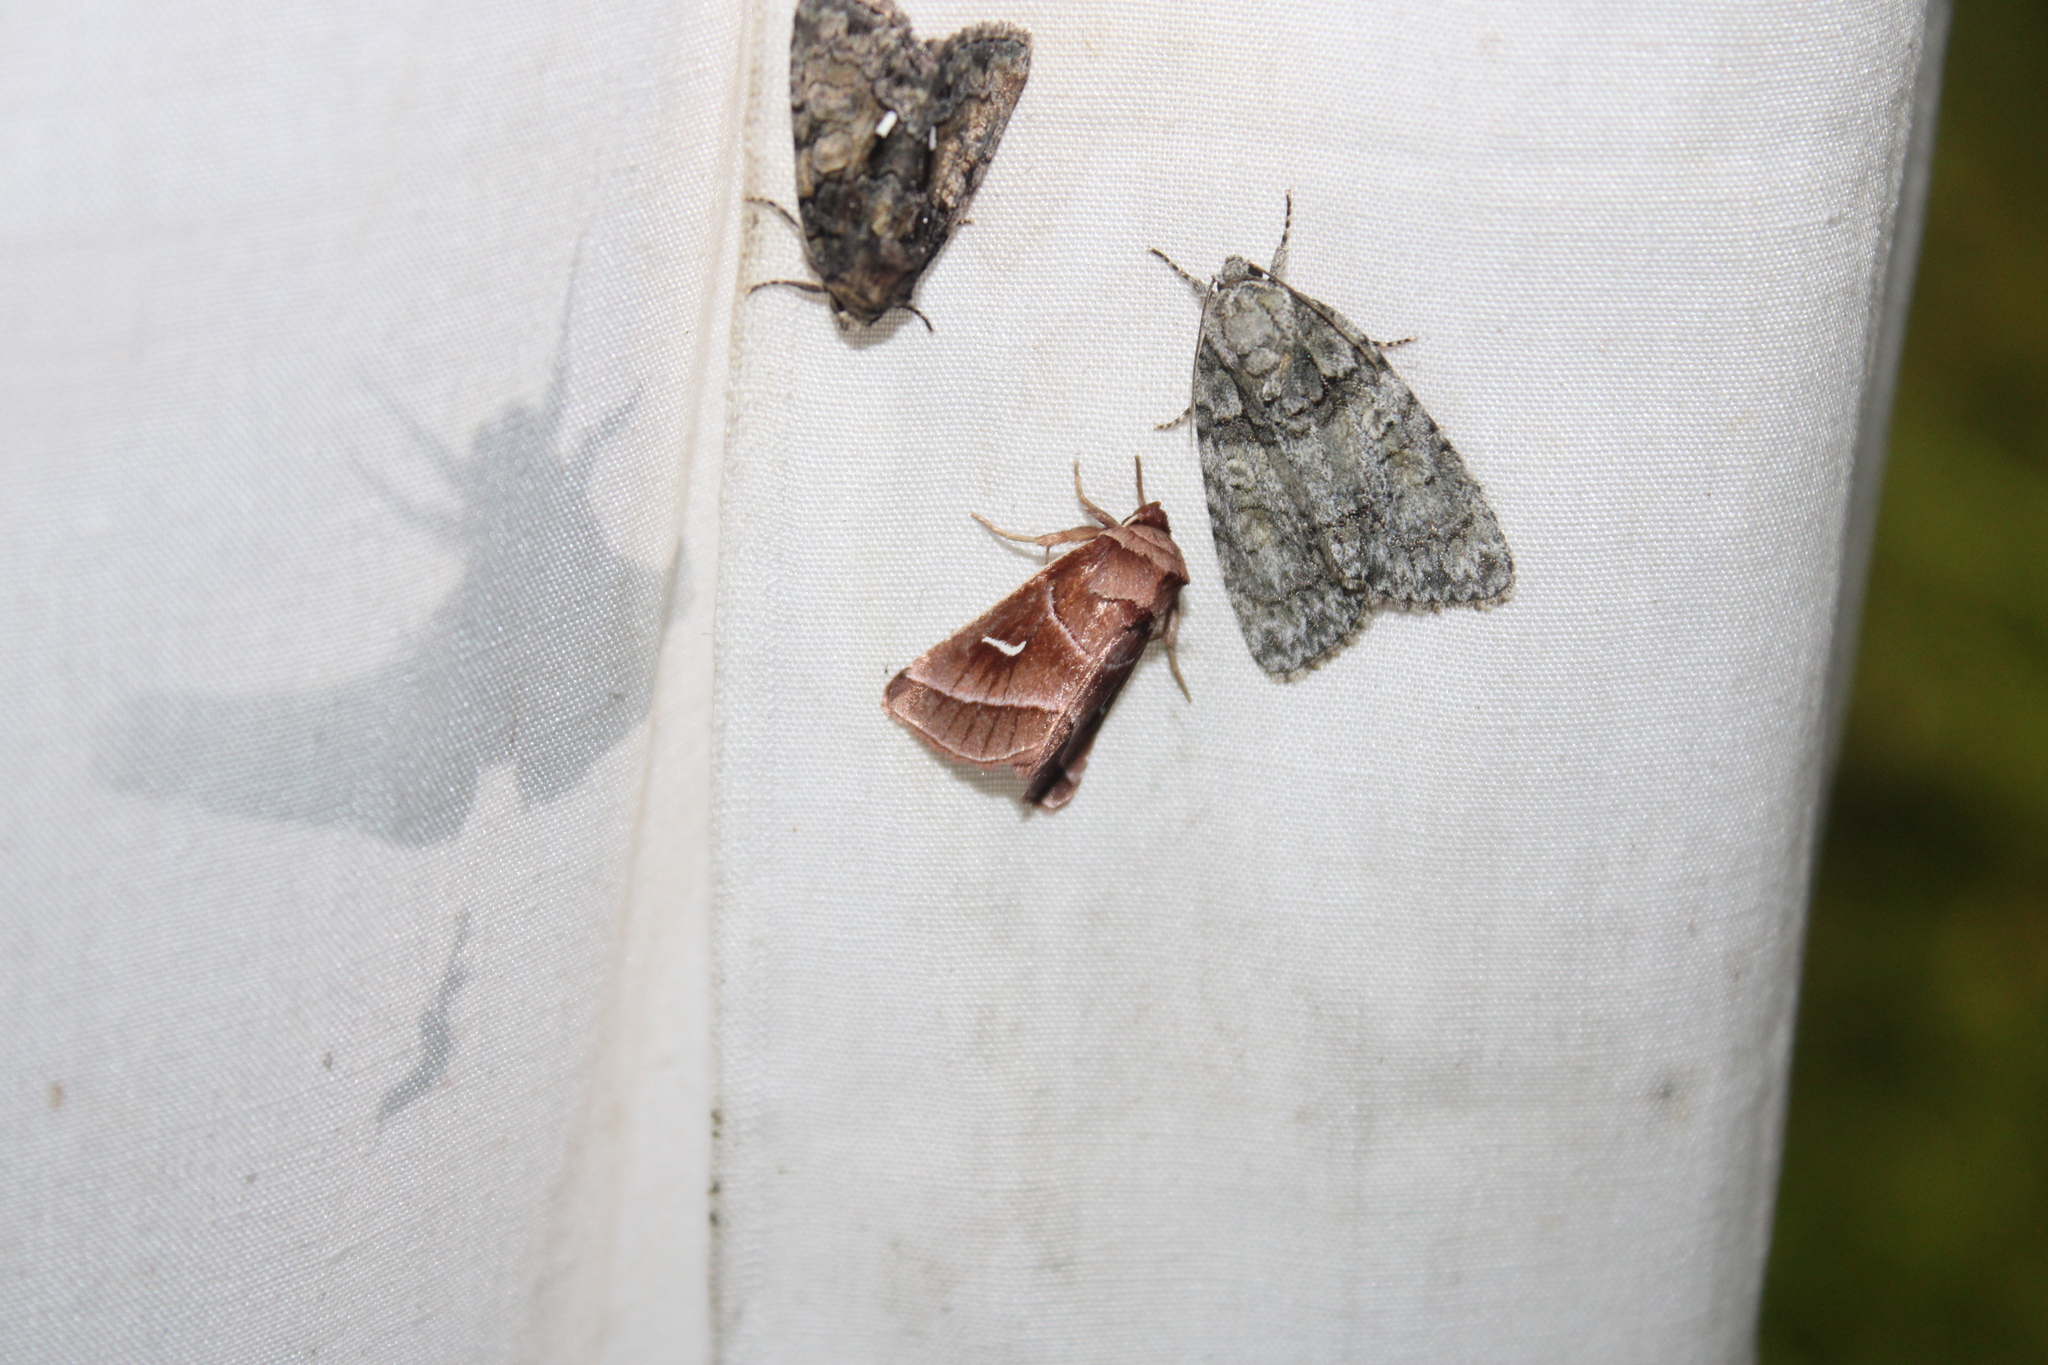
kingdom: Animalia
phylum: Arthropoda
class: Insecta
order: Lepidoptera
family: Noctuidae
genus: Fagitana
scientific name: Fagitana littera
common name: Marsh fern moth
